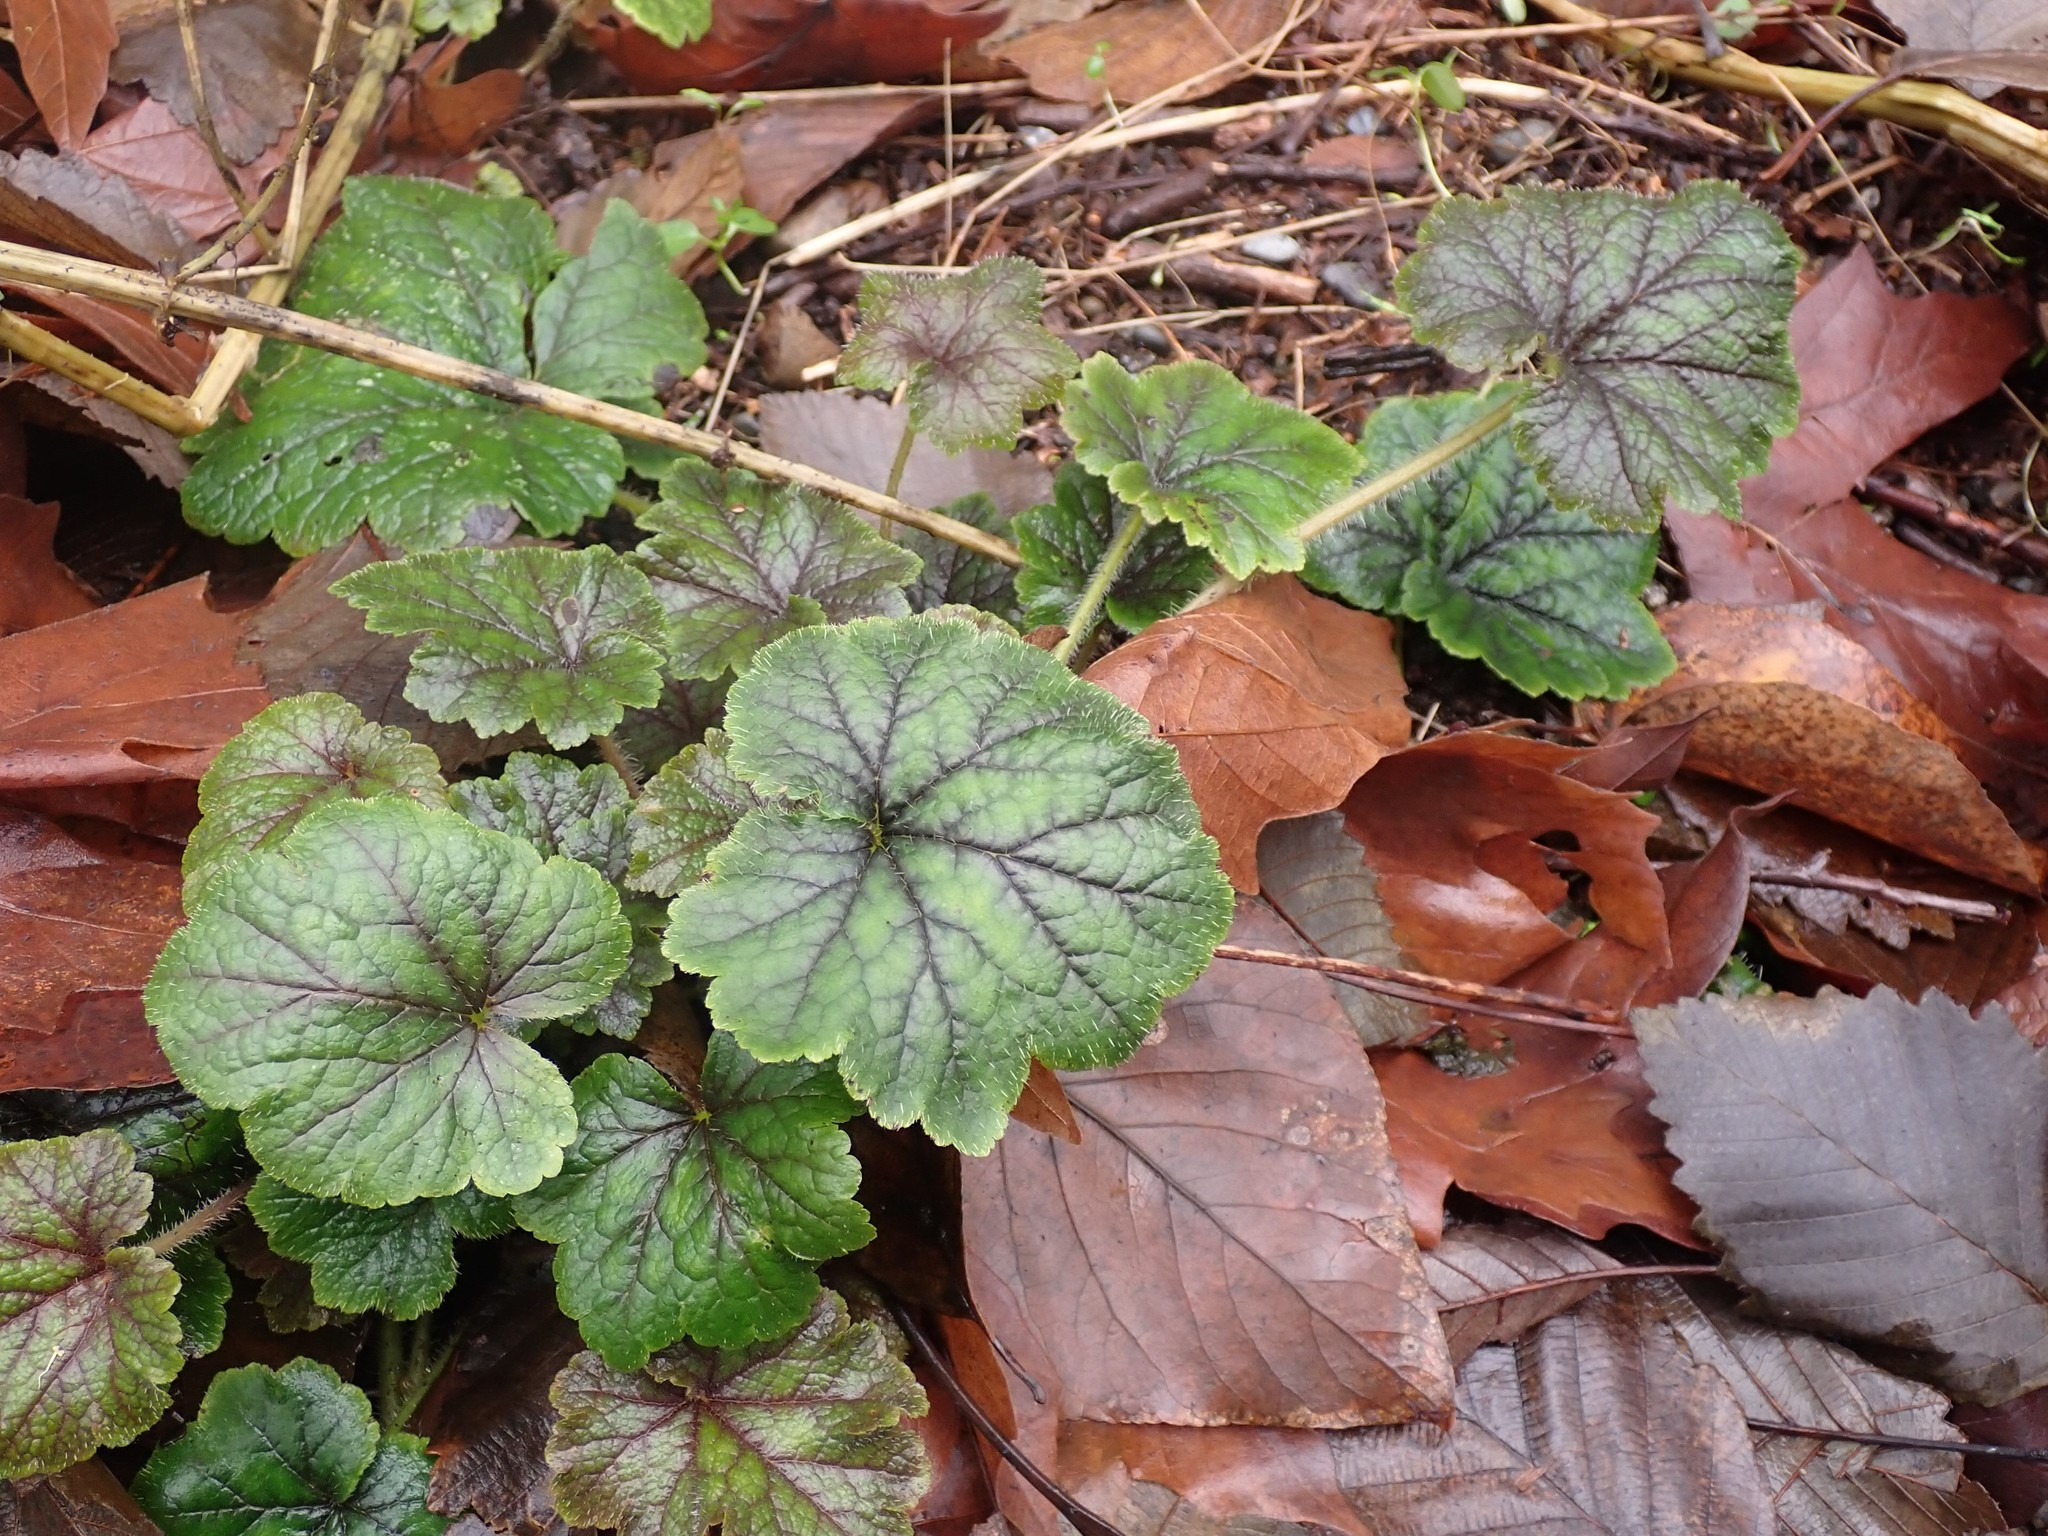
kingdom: Plantae
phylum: Tracheophyta
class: Magnoliopsida
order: Saxifragales
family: Saxifragaceae
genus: Tellima
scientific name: Tellima grandiflora
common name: Fringecups
